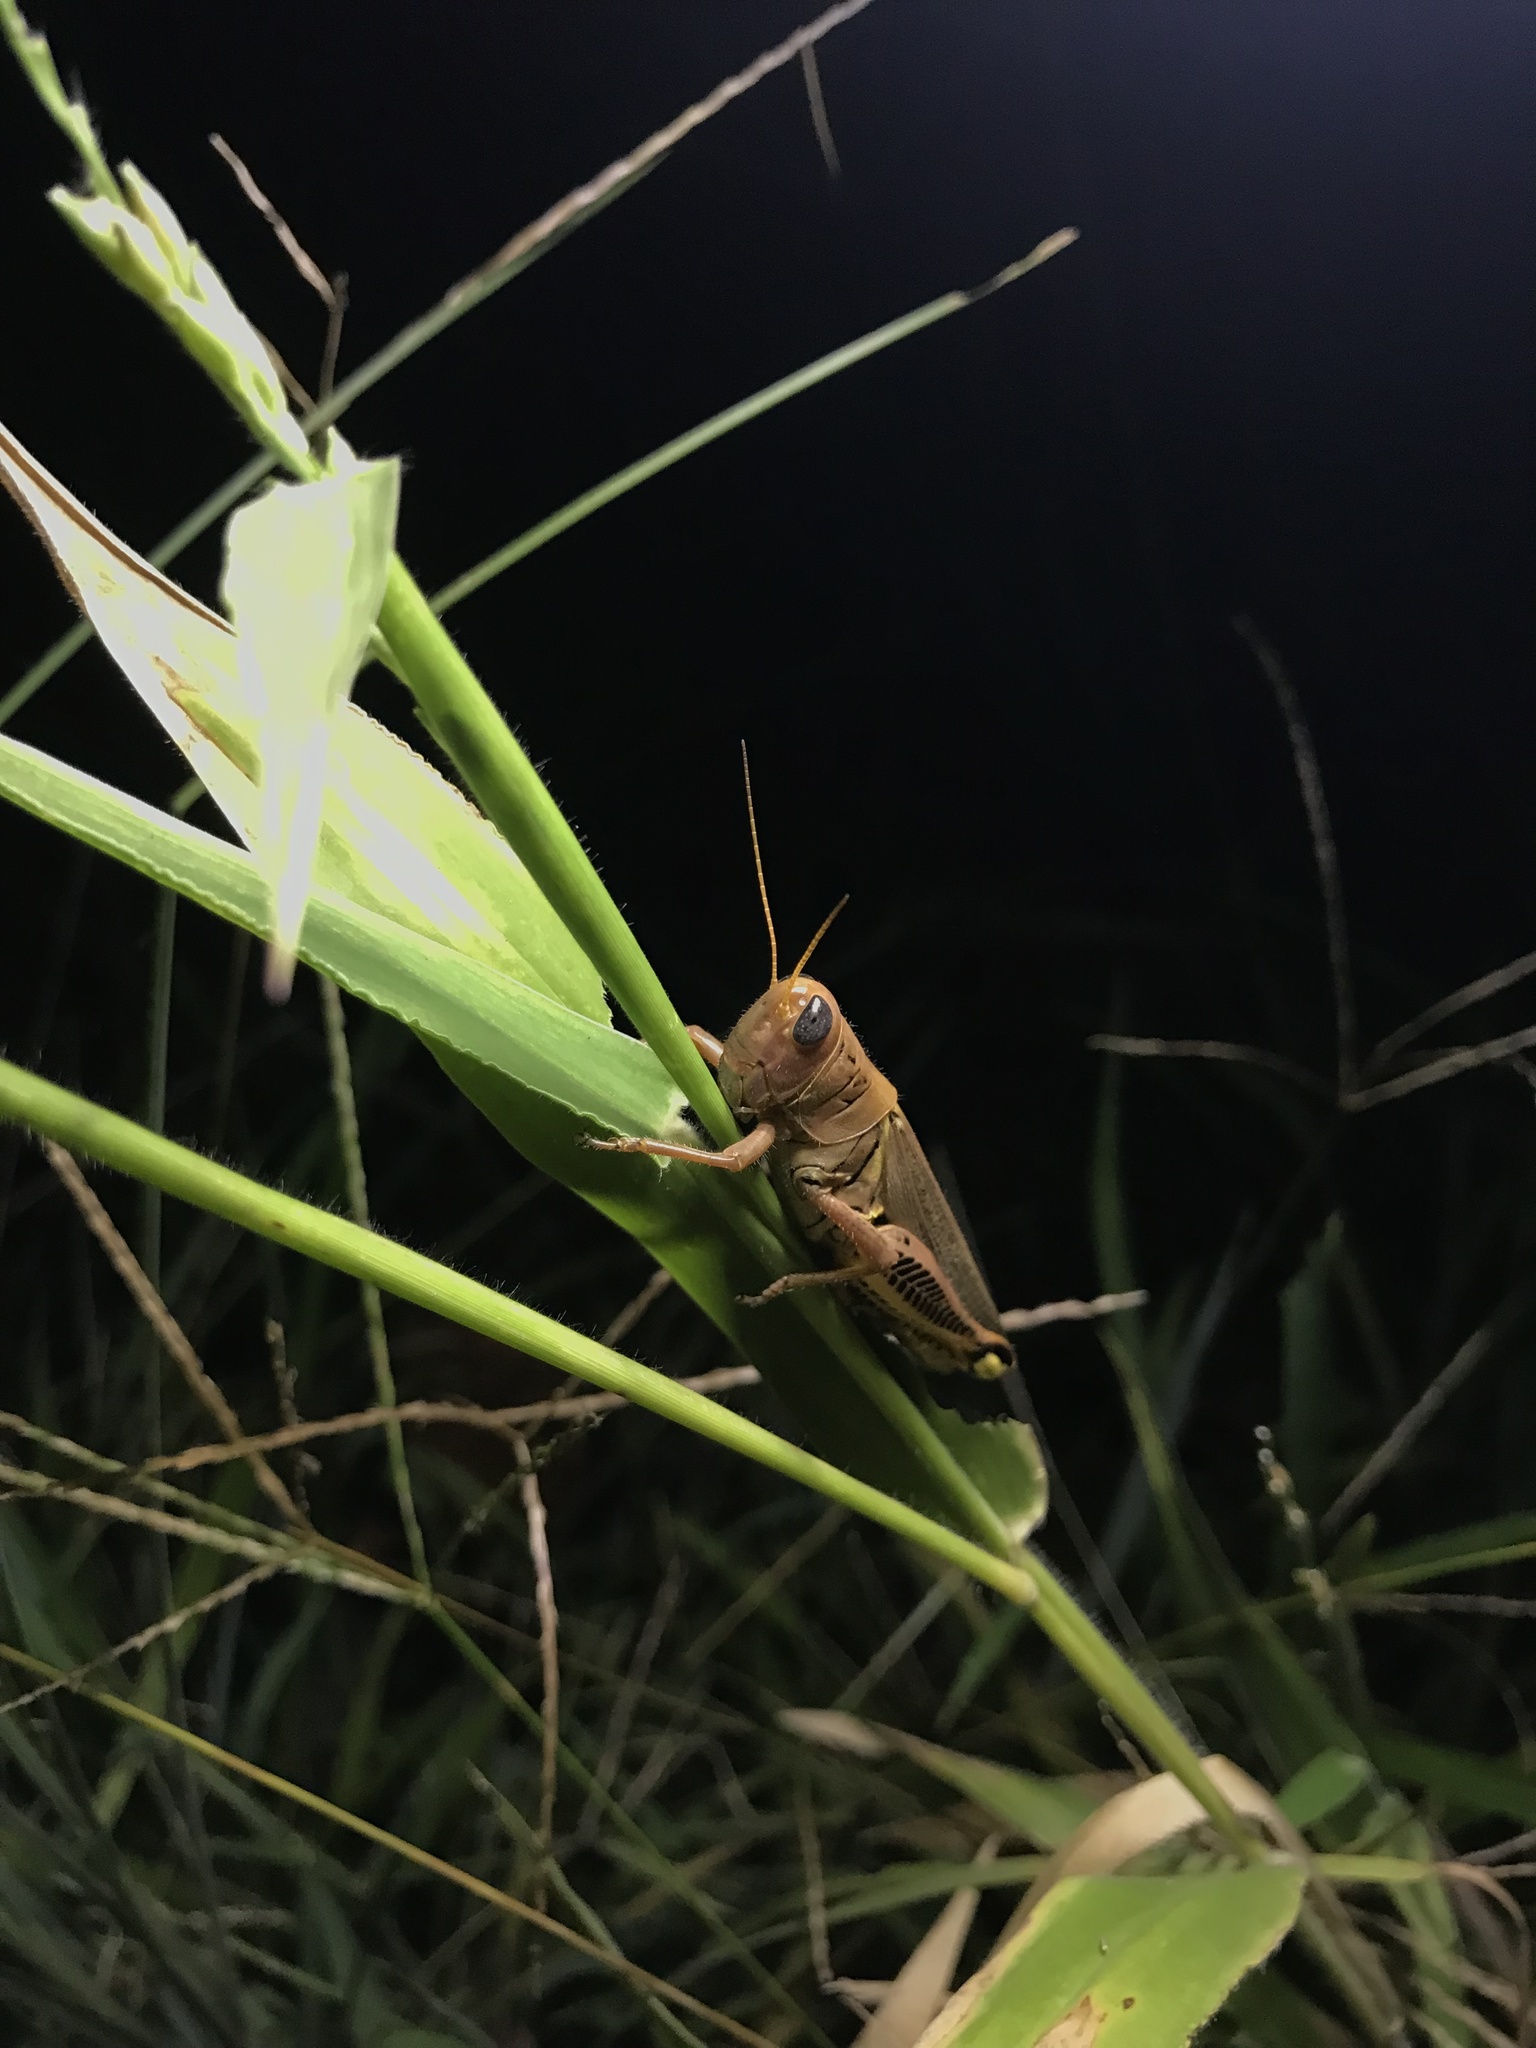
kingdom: Animalia
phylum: Arthropoda
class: Insecta
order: Orthoptera
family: Acrididae
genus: Melanoplus
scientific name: Melanoplus differentialis
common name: Differential grasshopper
